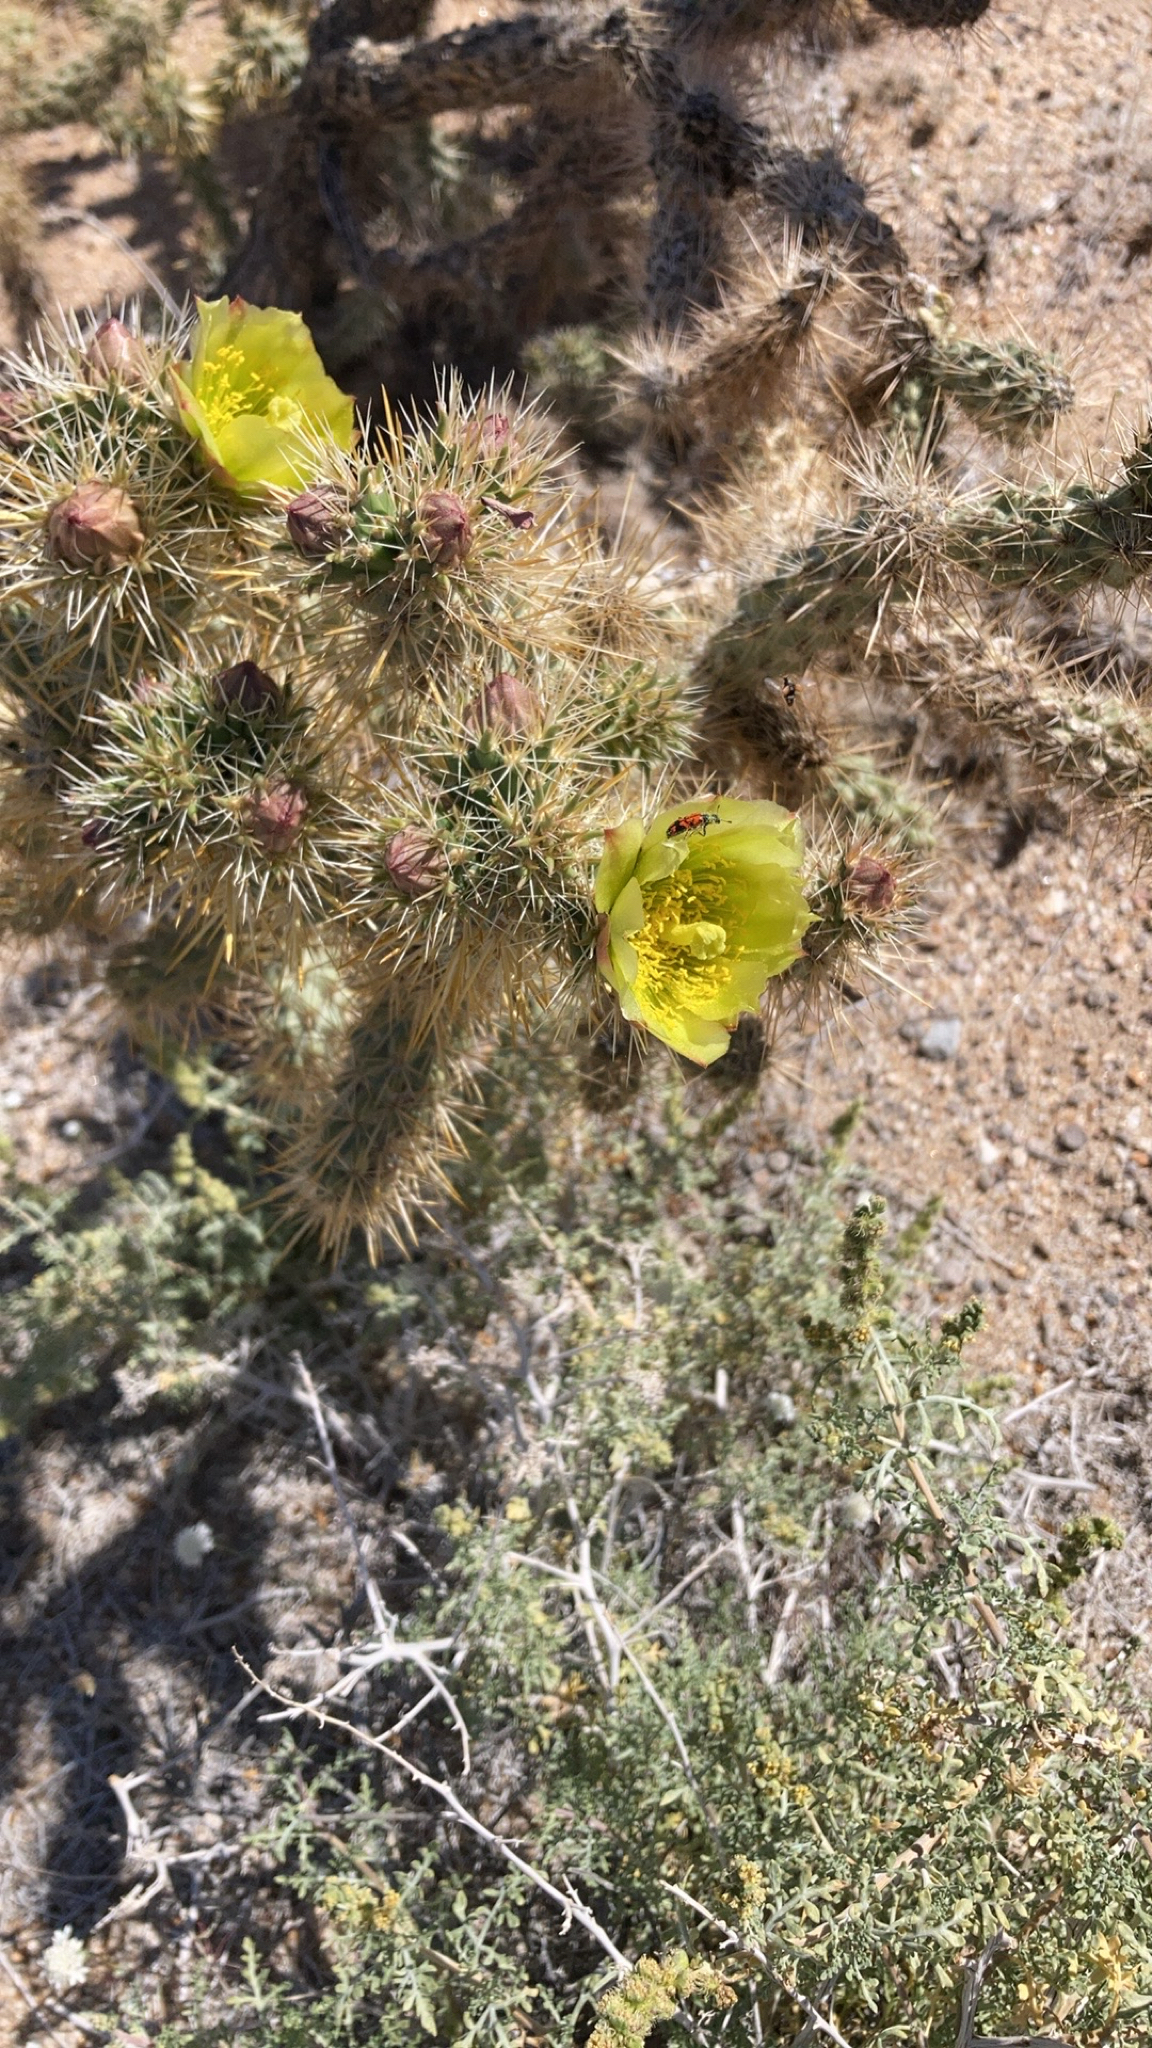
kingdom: Plantae
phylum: Tracheophyta
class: Magnoliopsida
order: Caryophyllales
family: Cactaceae
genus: Cylindropuntia
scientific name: Cylindropuntia ganderi
